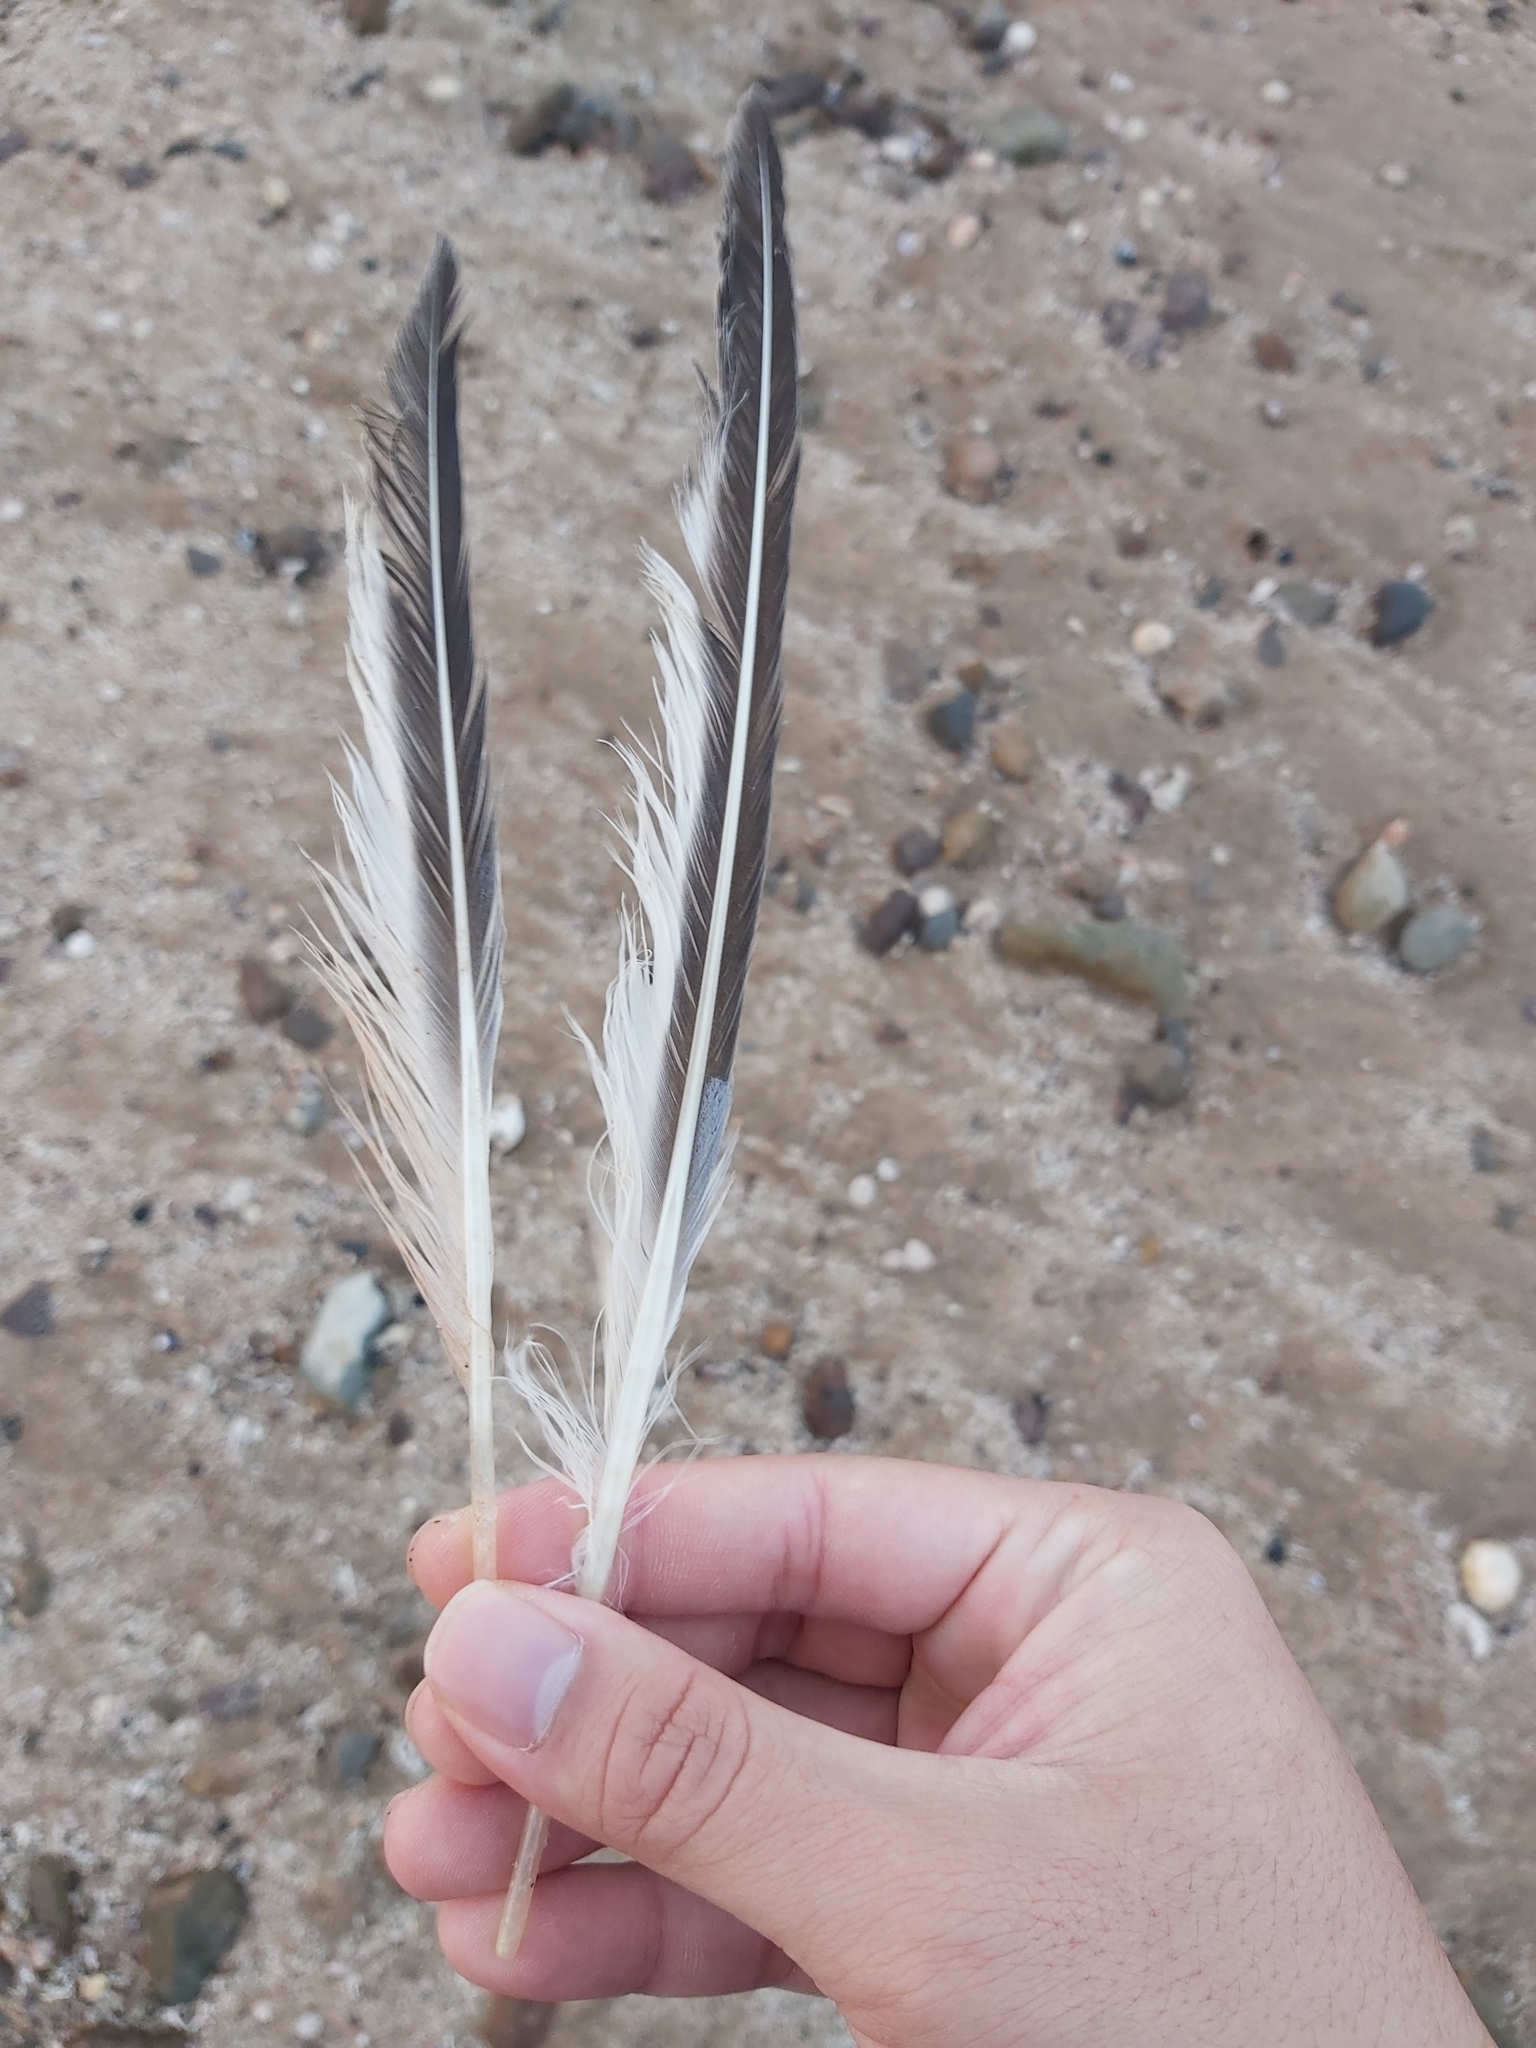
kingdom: Animalia
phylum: Chordata
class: Aves
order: Charadriiformes
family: Laridae
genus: Thalasseus
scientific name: Thalasseus bergii
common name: Greater crested tern
